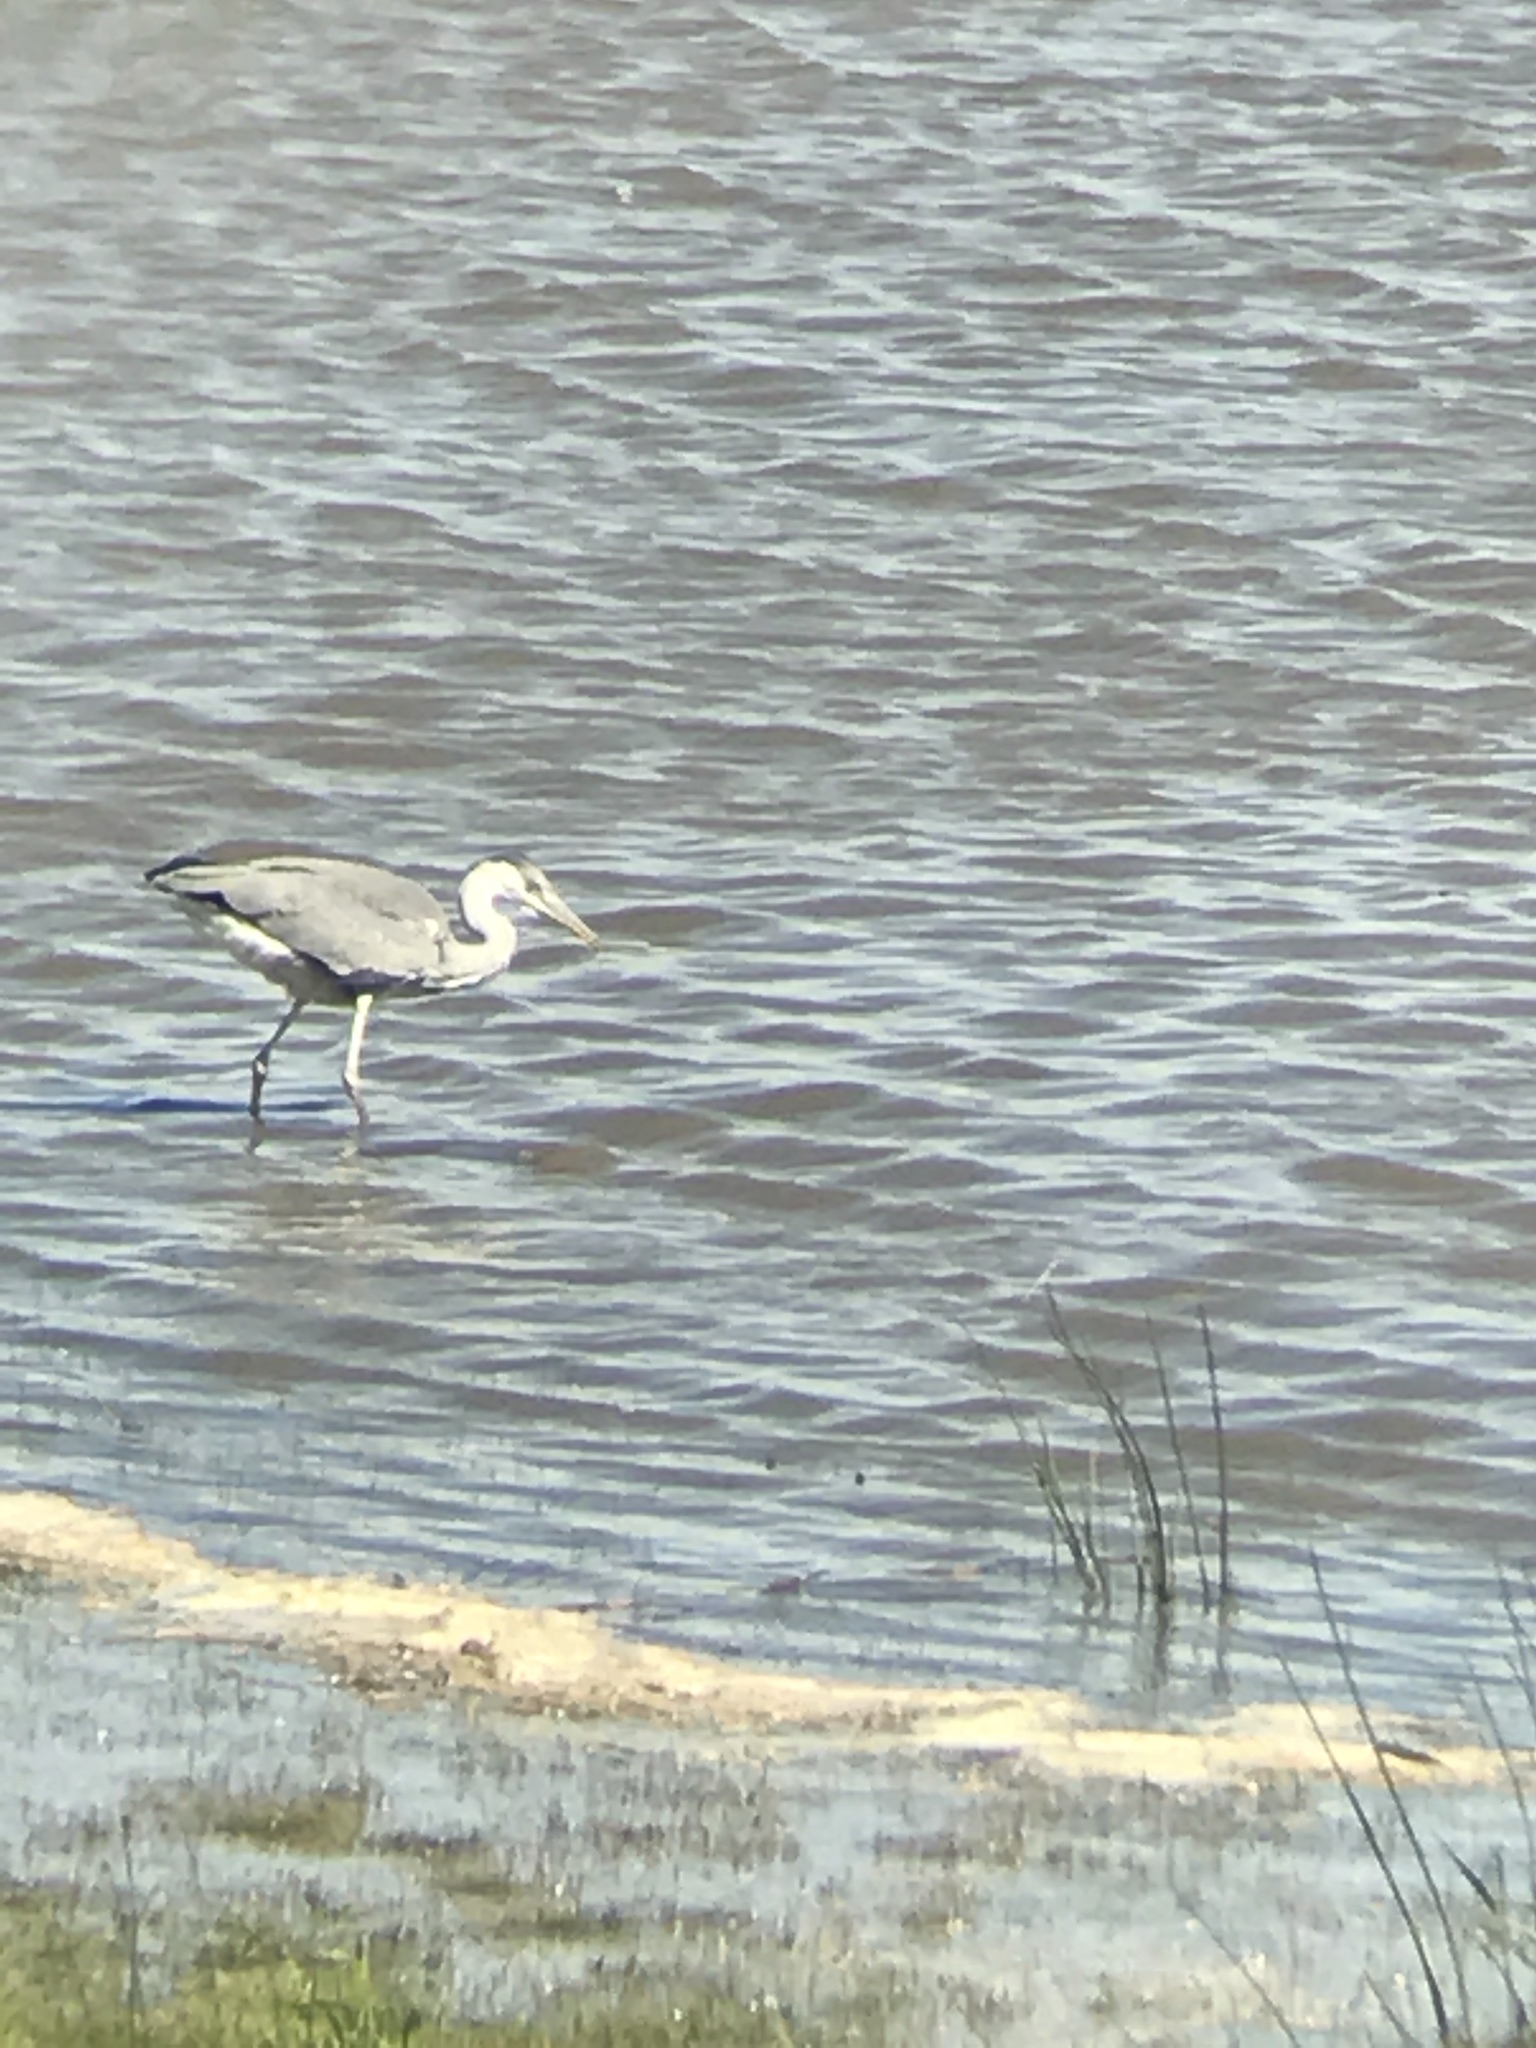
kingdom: Animalia
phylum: Chordata
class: Aves
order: Pelecaniformes
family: Ardeidae
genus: Ardea
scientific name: Ardea cinerea
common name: Grey heron
